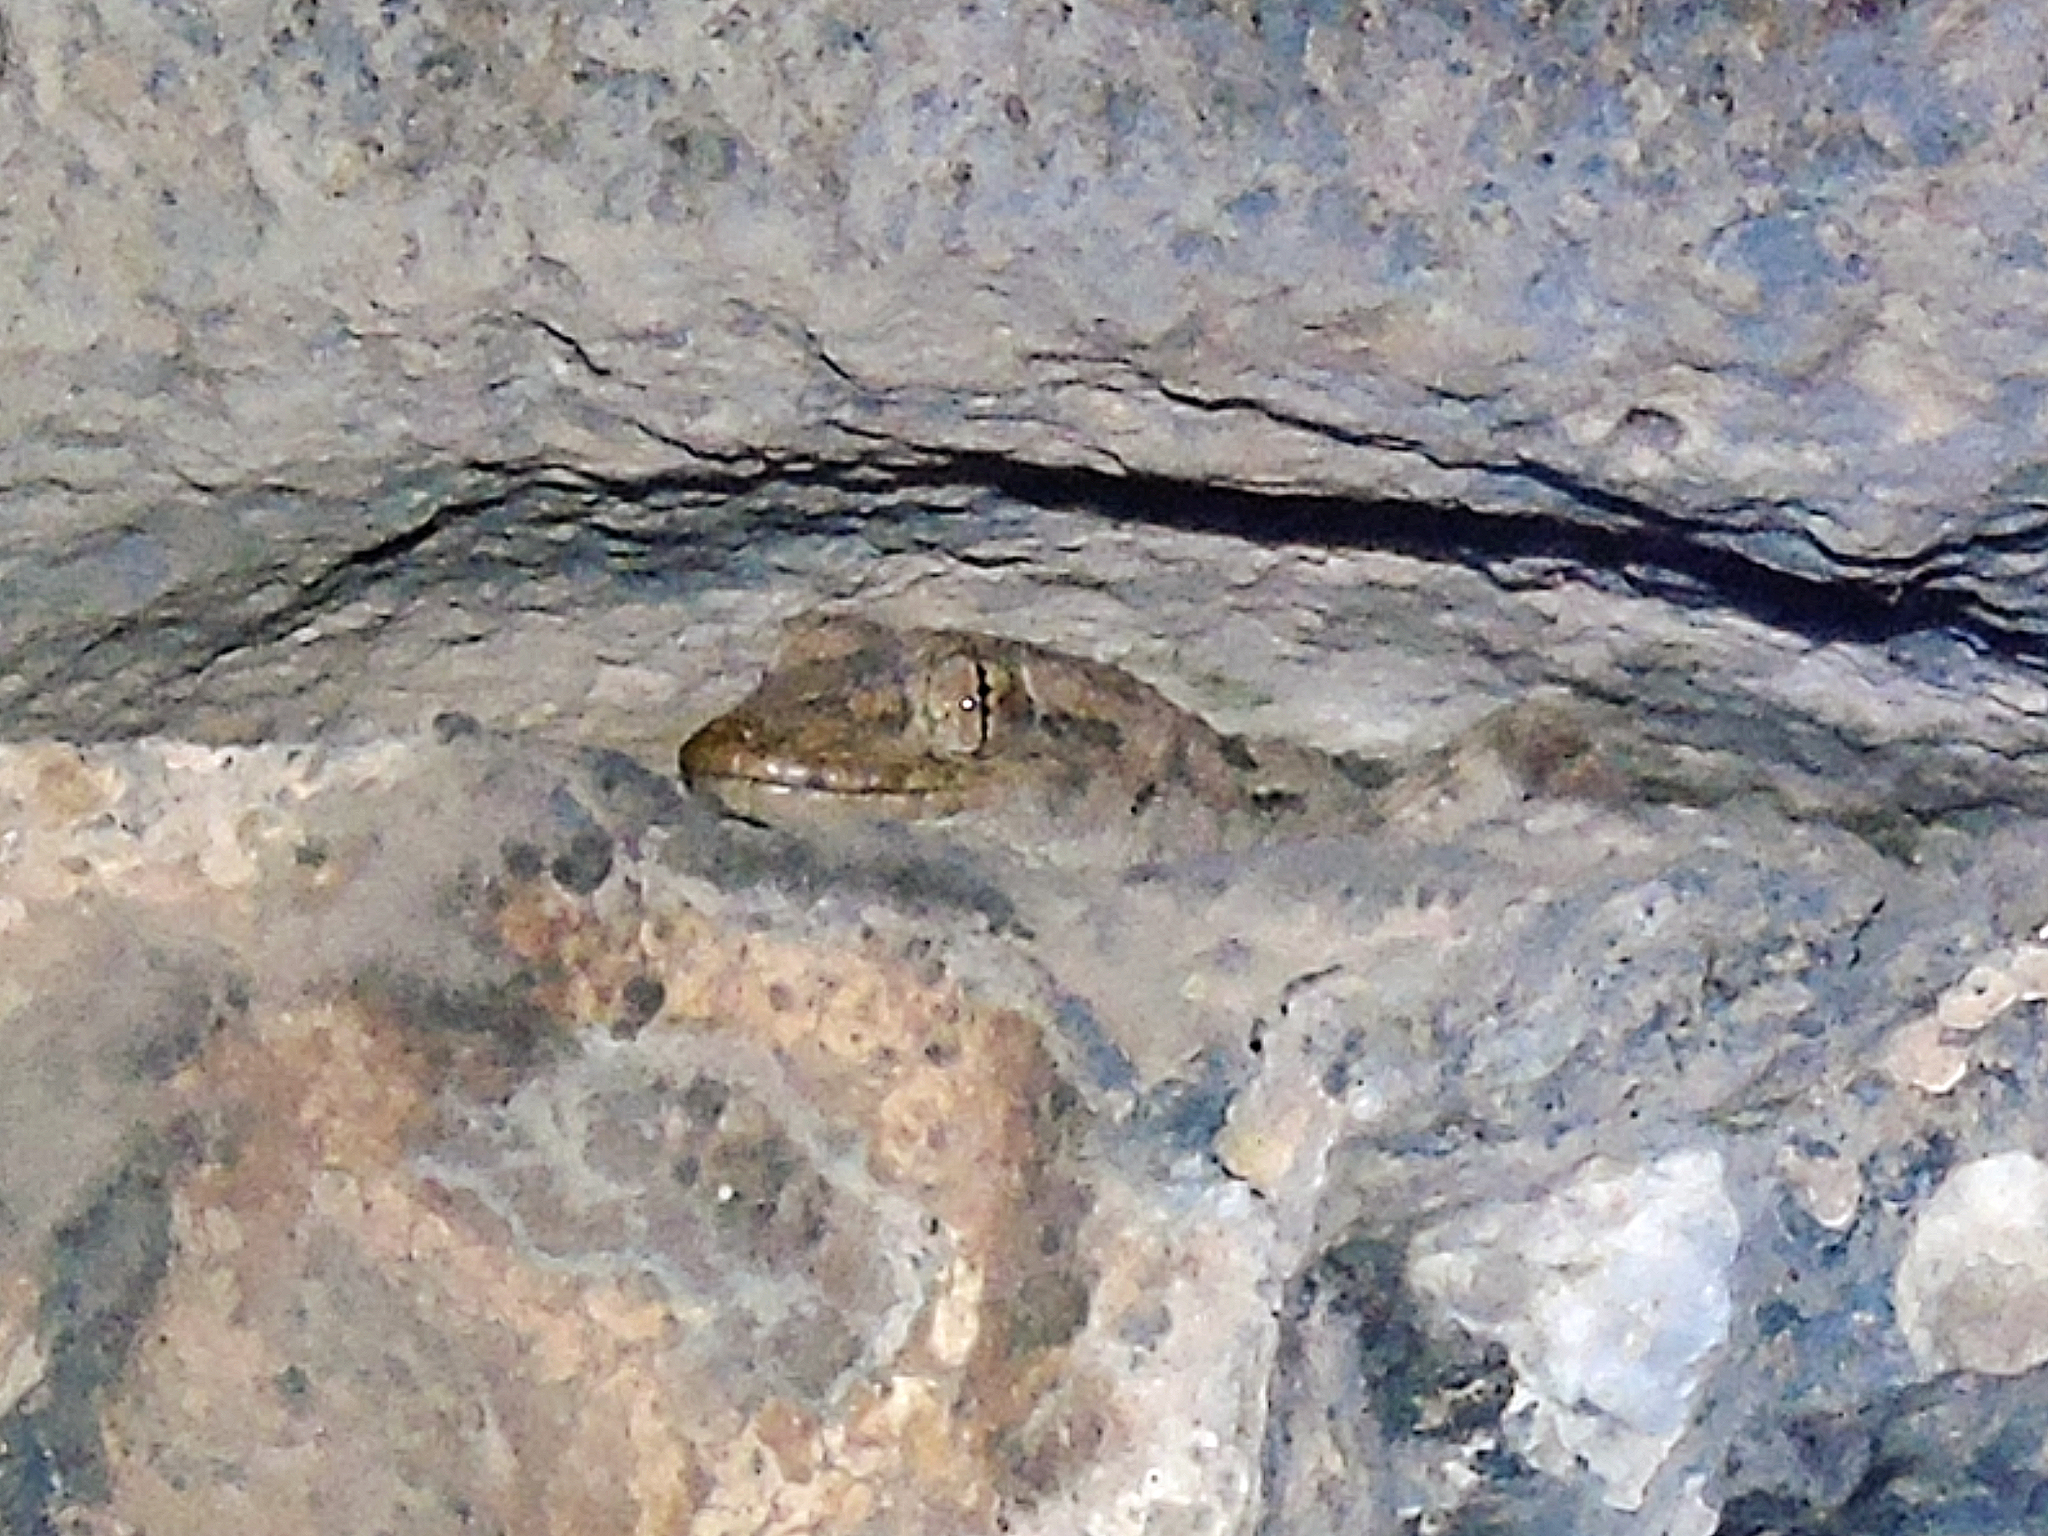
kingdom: Animalia
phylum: Chordata
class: Squamata
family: Gekkonidae
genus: Mediodactylus
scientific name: Mediodactylus heterocercus
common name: Asia minor thin-toed gecko
